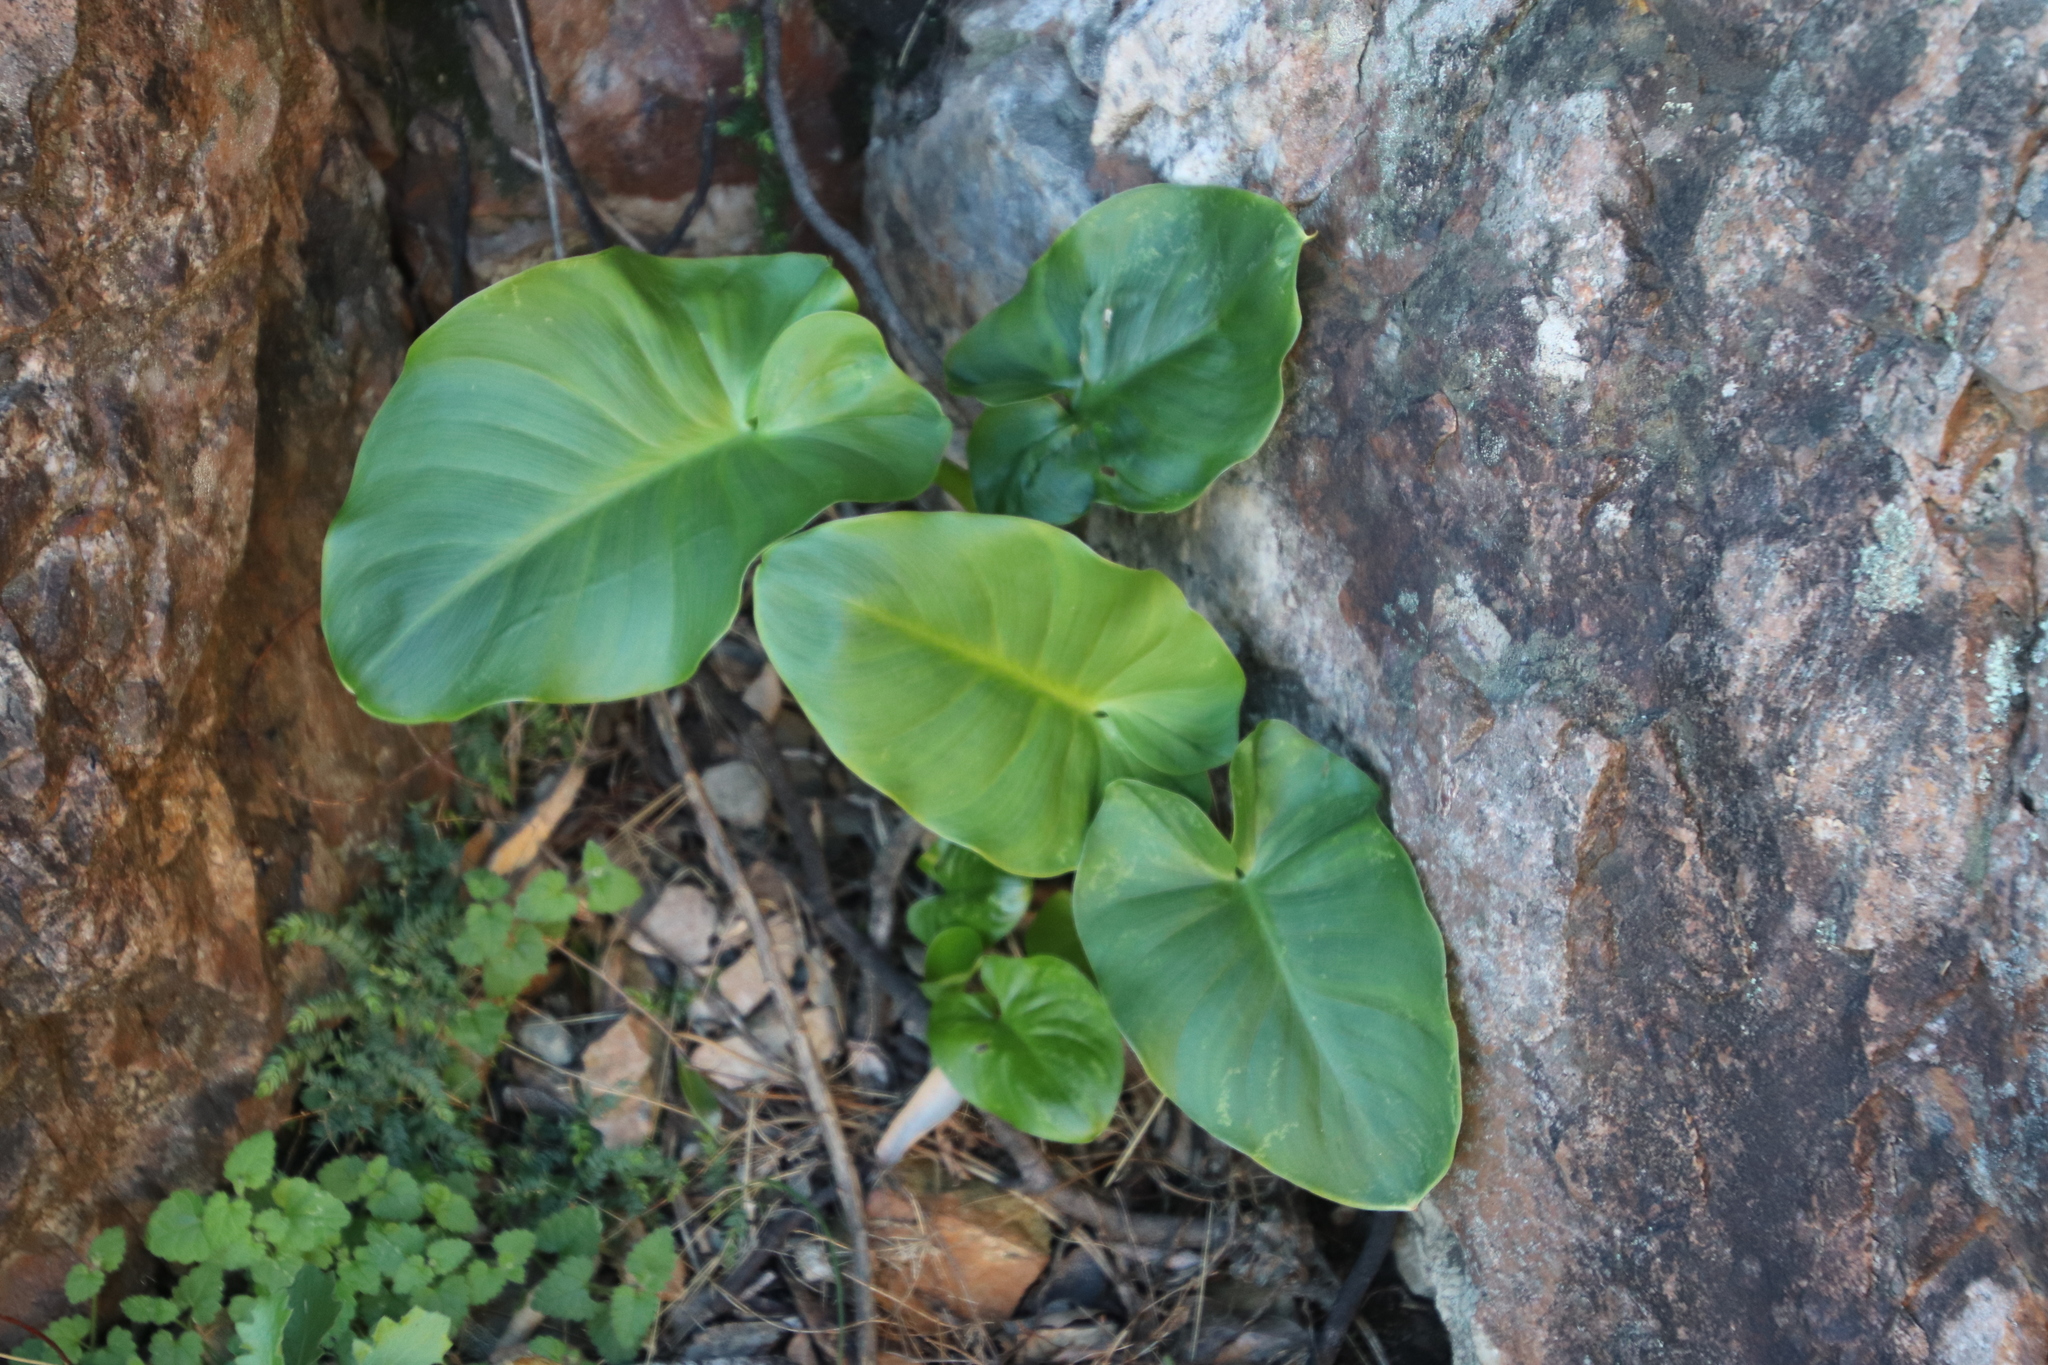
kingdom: Plantae
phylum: Tracheophyta
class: Liliopsida
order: Alismatales
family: Araceae
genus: Zantedeschia
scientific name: Zantedeschia aethiopica
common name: Altar-lily
